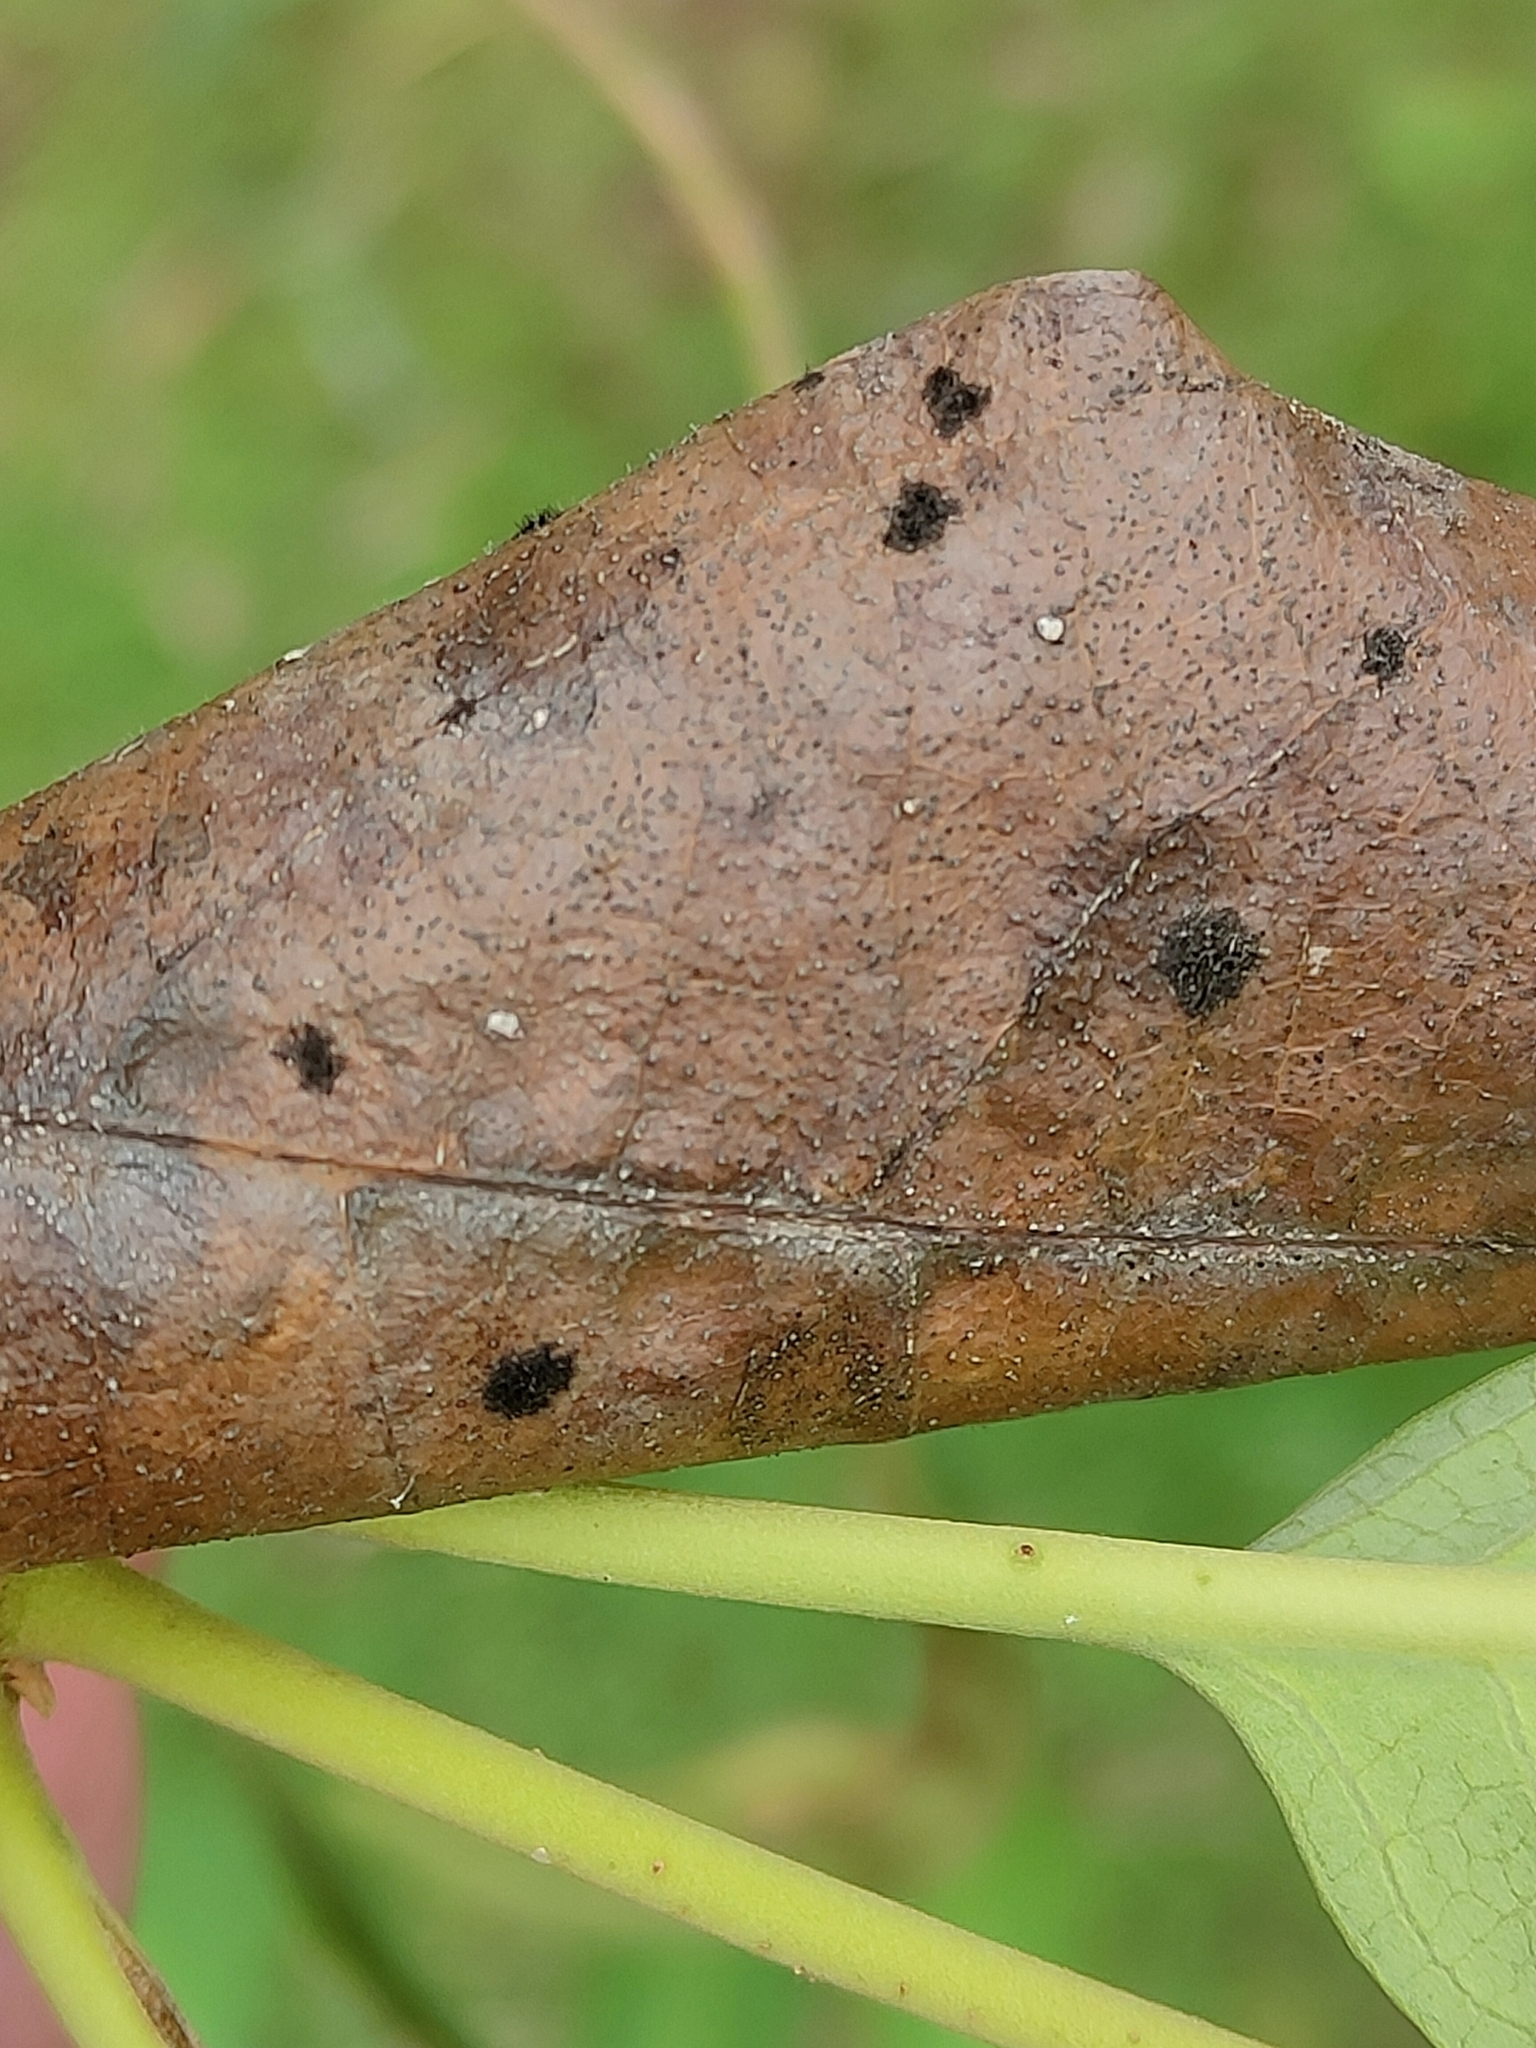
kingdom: Plantae
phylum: Tracheophyta
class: Magnoliopsida
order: Gentianales
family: Apocynaceae
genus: Parsonsia
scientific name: Parsonsia brisbanensis
